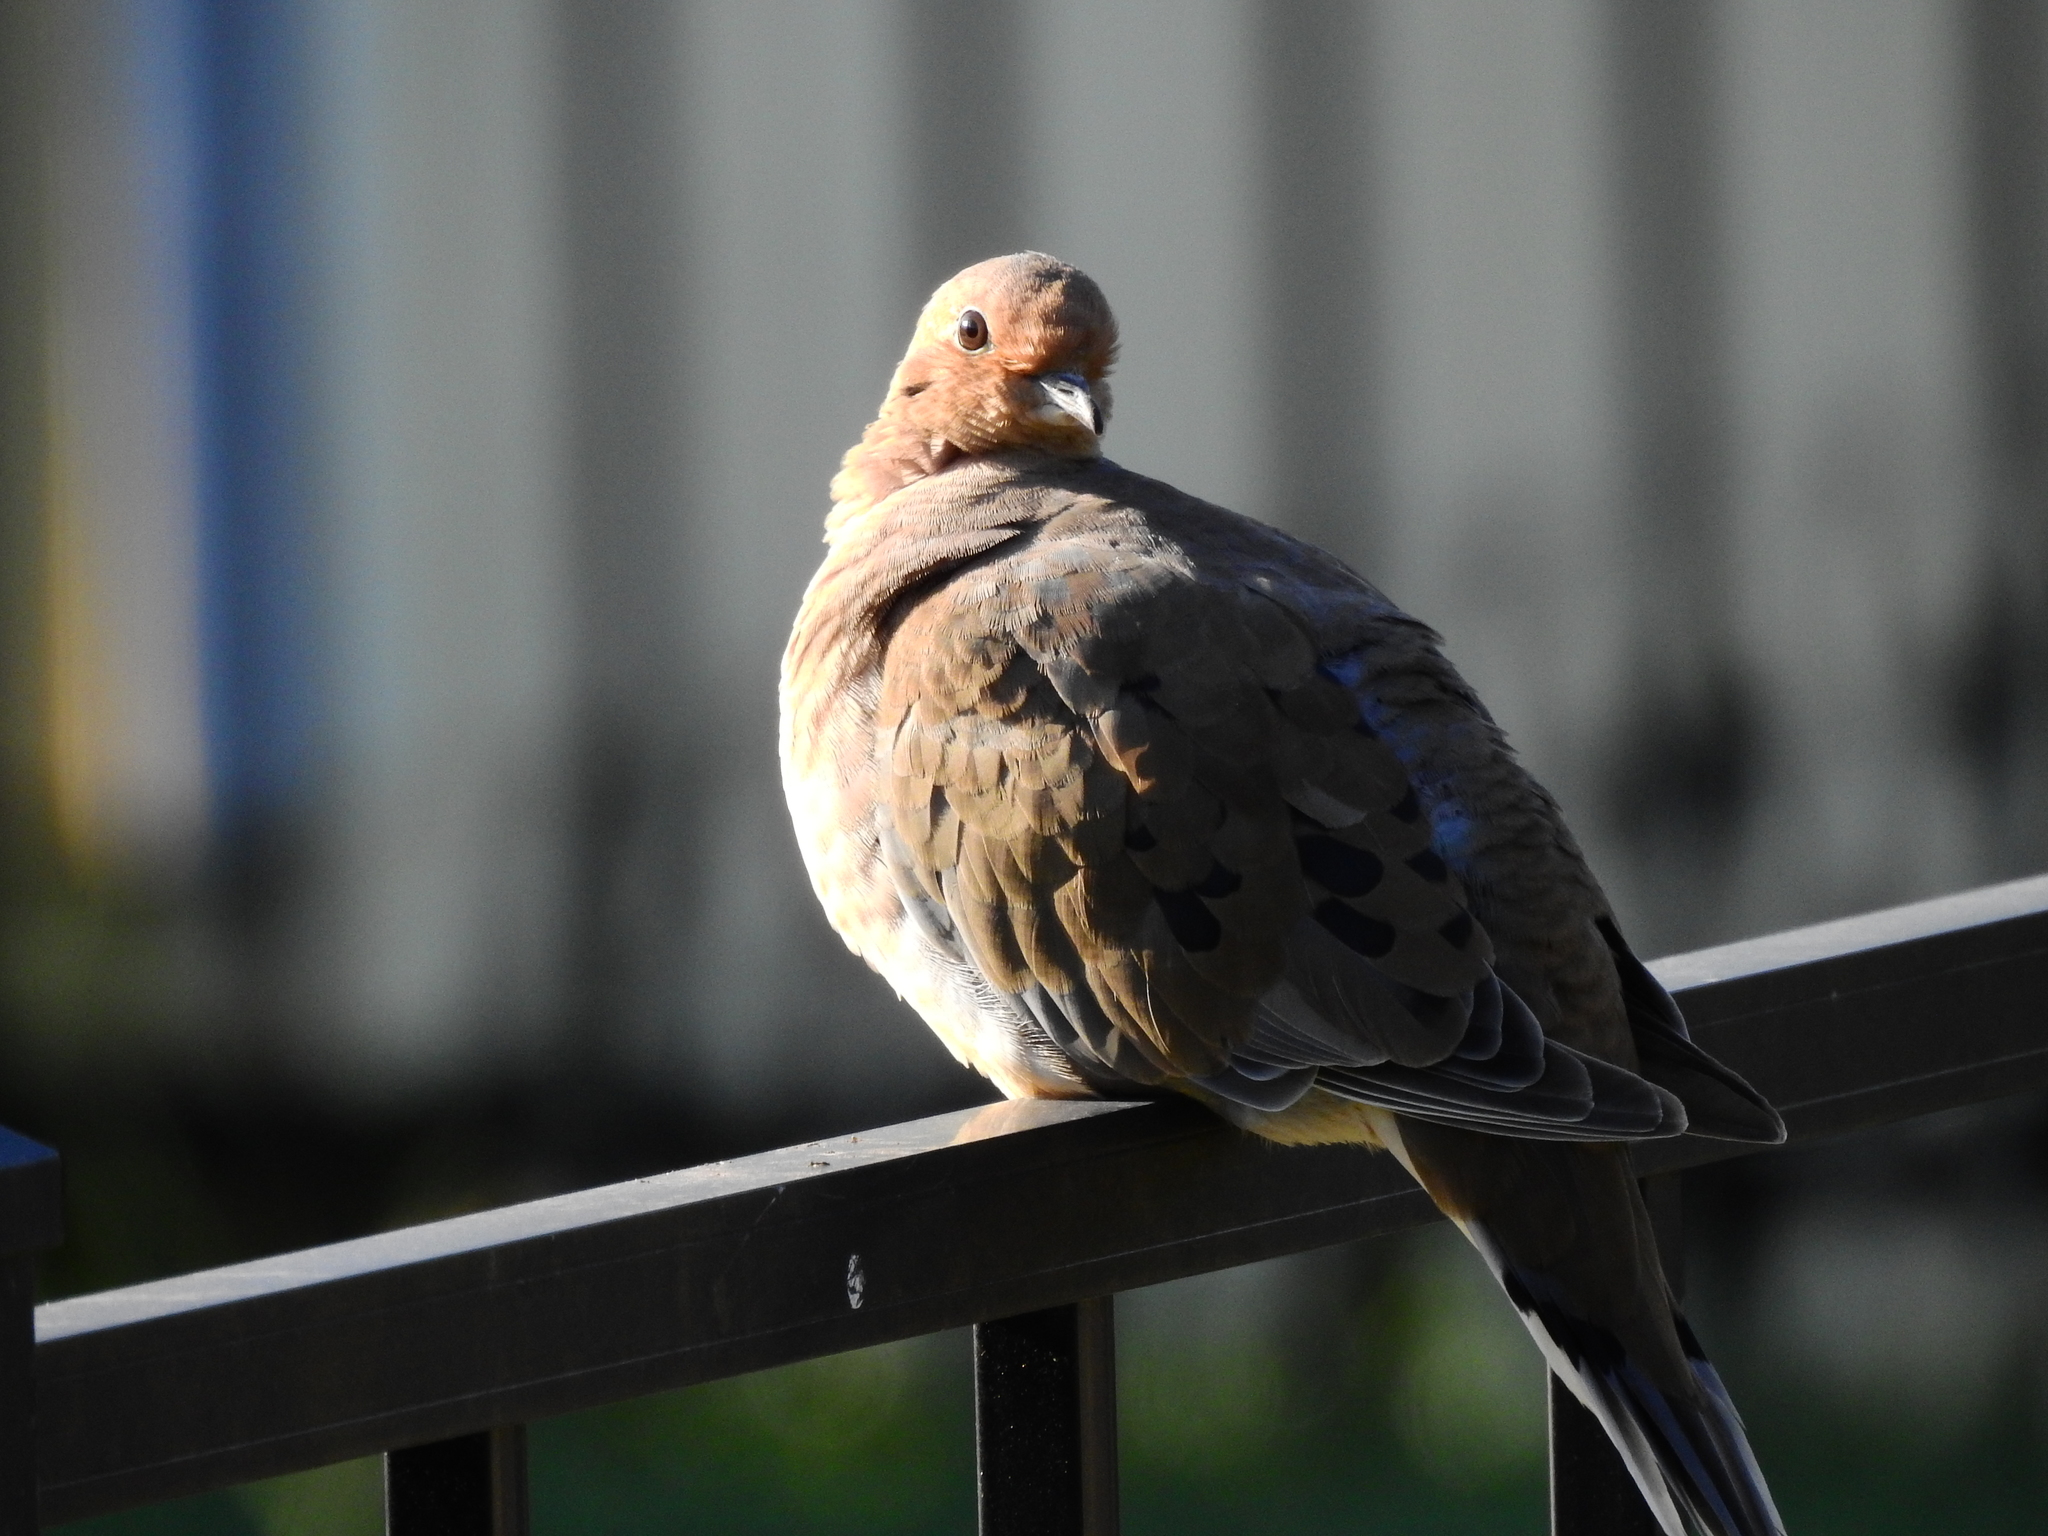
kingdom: Animalia
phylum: Chordata
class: Aves
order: Columbiformes
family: Columbidae
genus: Zenaida
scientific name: Zenaida macroura
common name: Mourning dove
